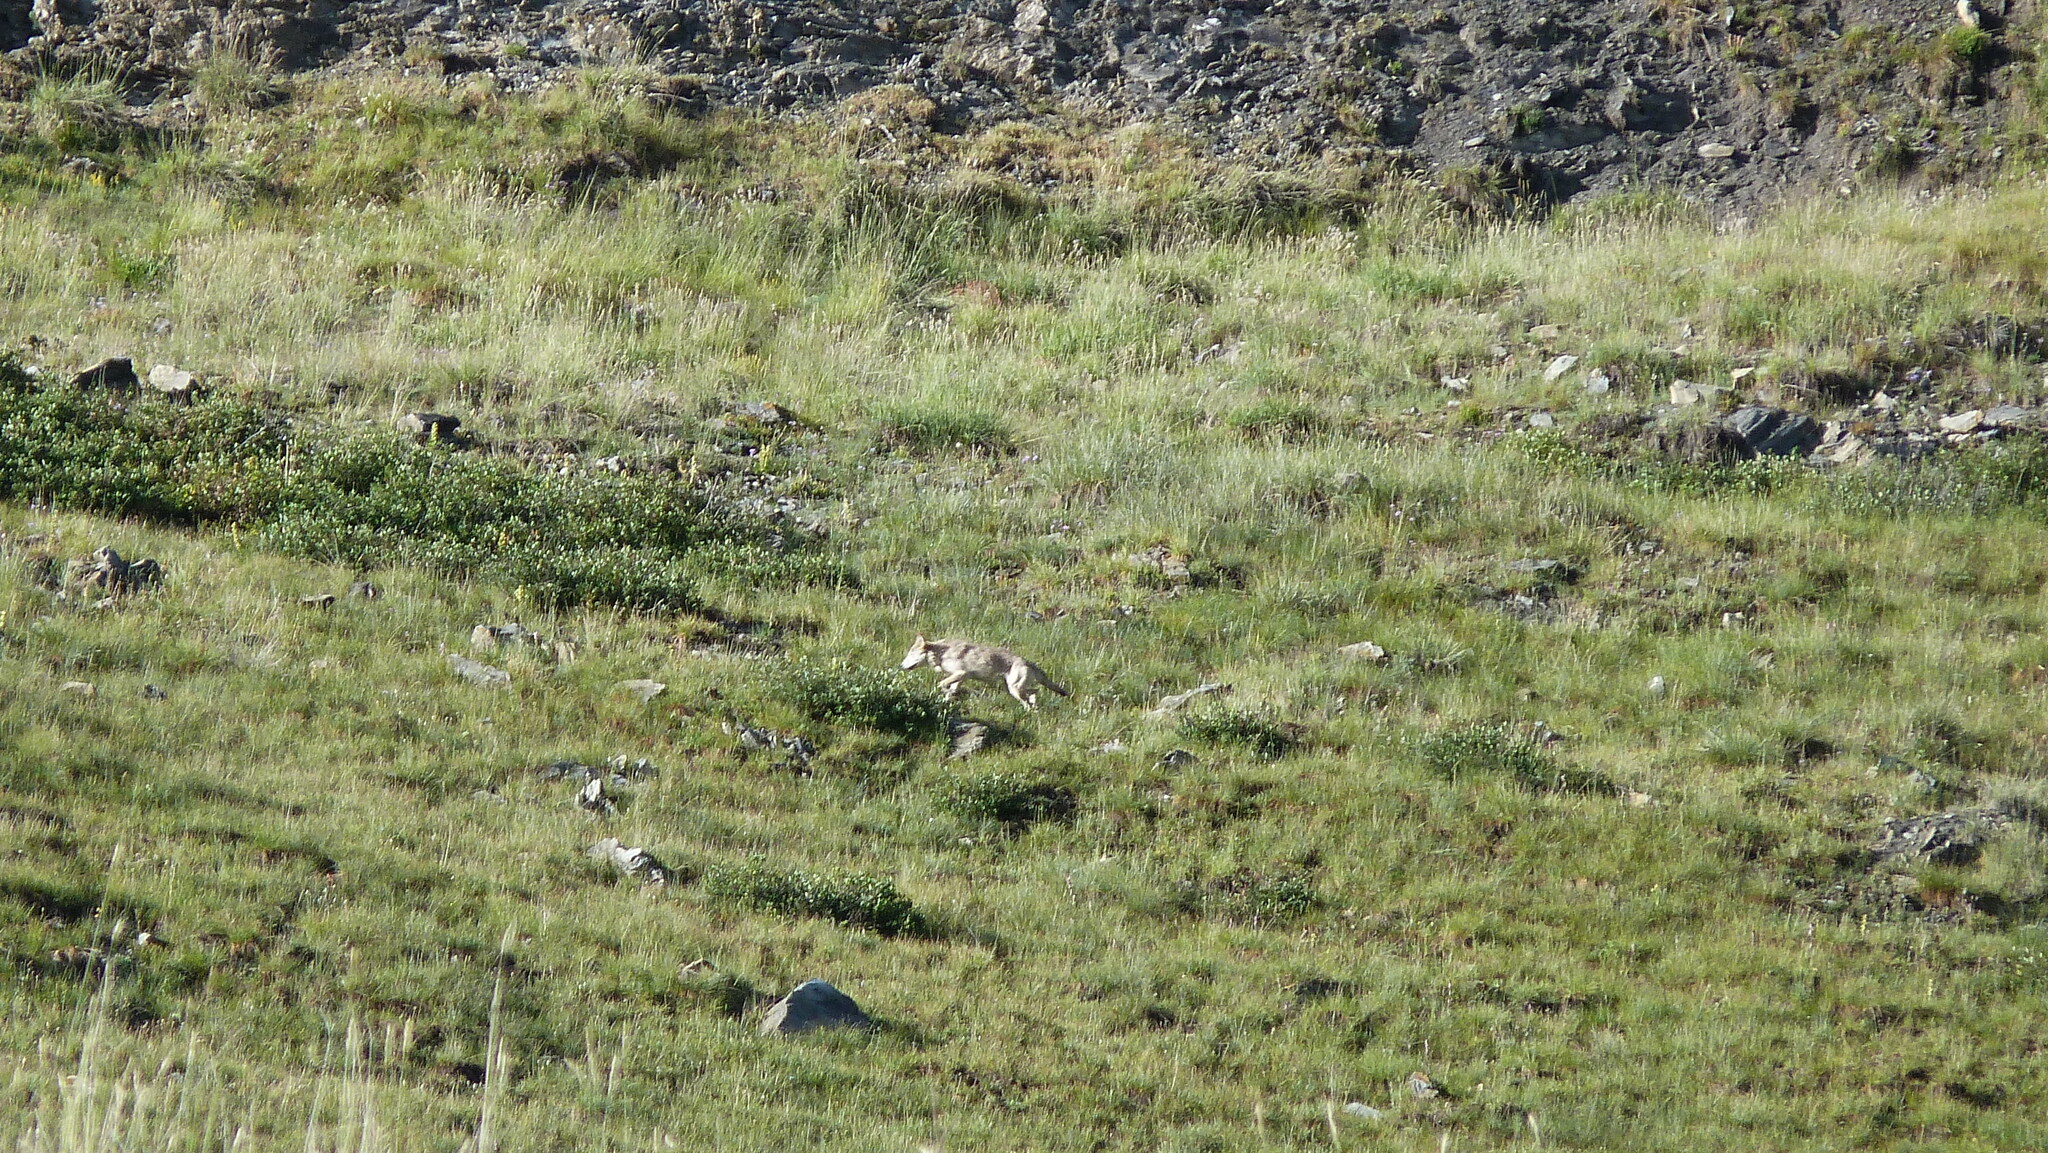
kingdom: Animalia
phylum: Chordata
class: Mammalia
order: Carnivora
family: Canidae
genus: Canis
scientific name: Canis lupus
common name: Gray wolf
